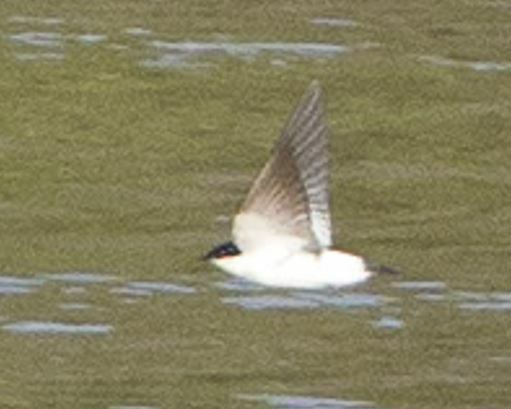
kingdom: Animalia
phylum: Chordata
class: Aves
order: Passeriformes
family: Hirundinidae
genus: Tachycineta
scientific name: Tachycineta albiventer
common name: White-winged swallow
